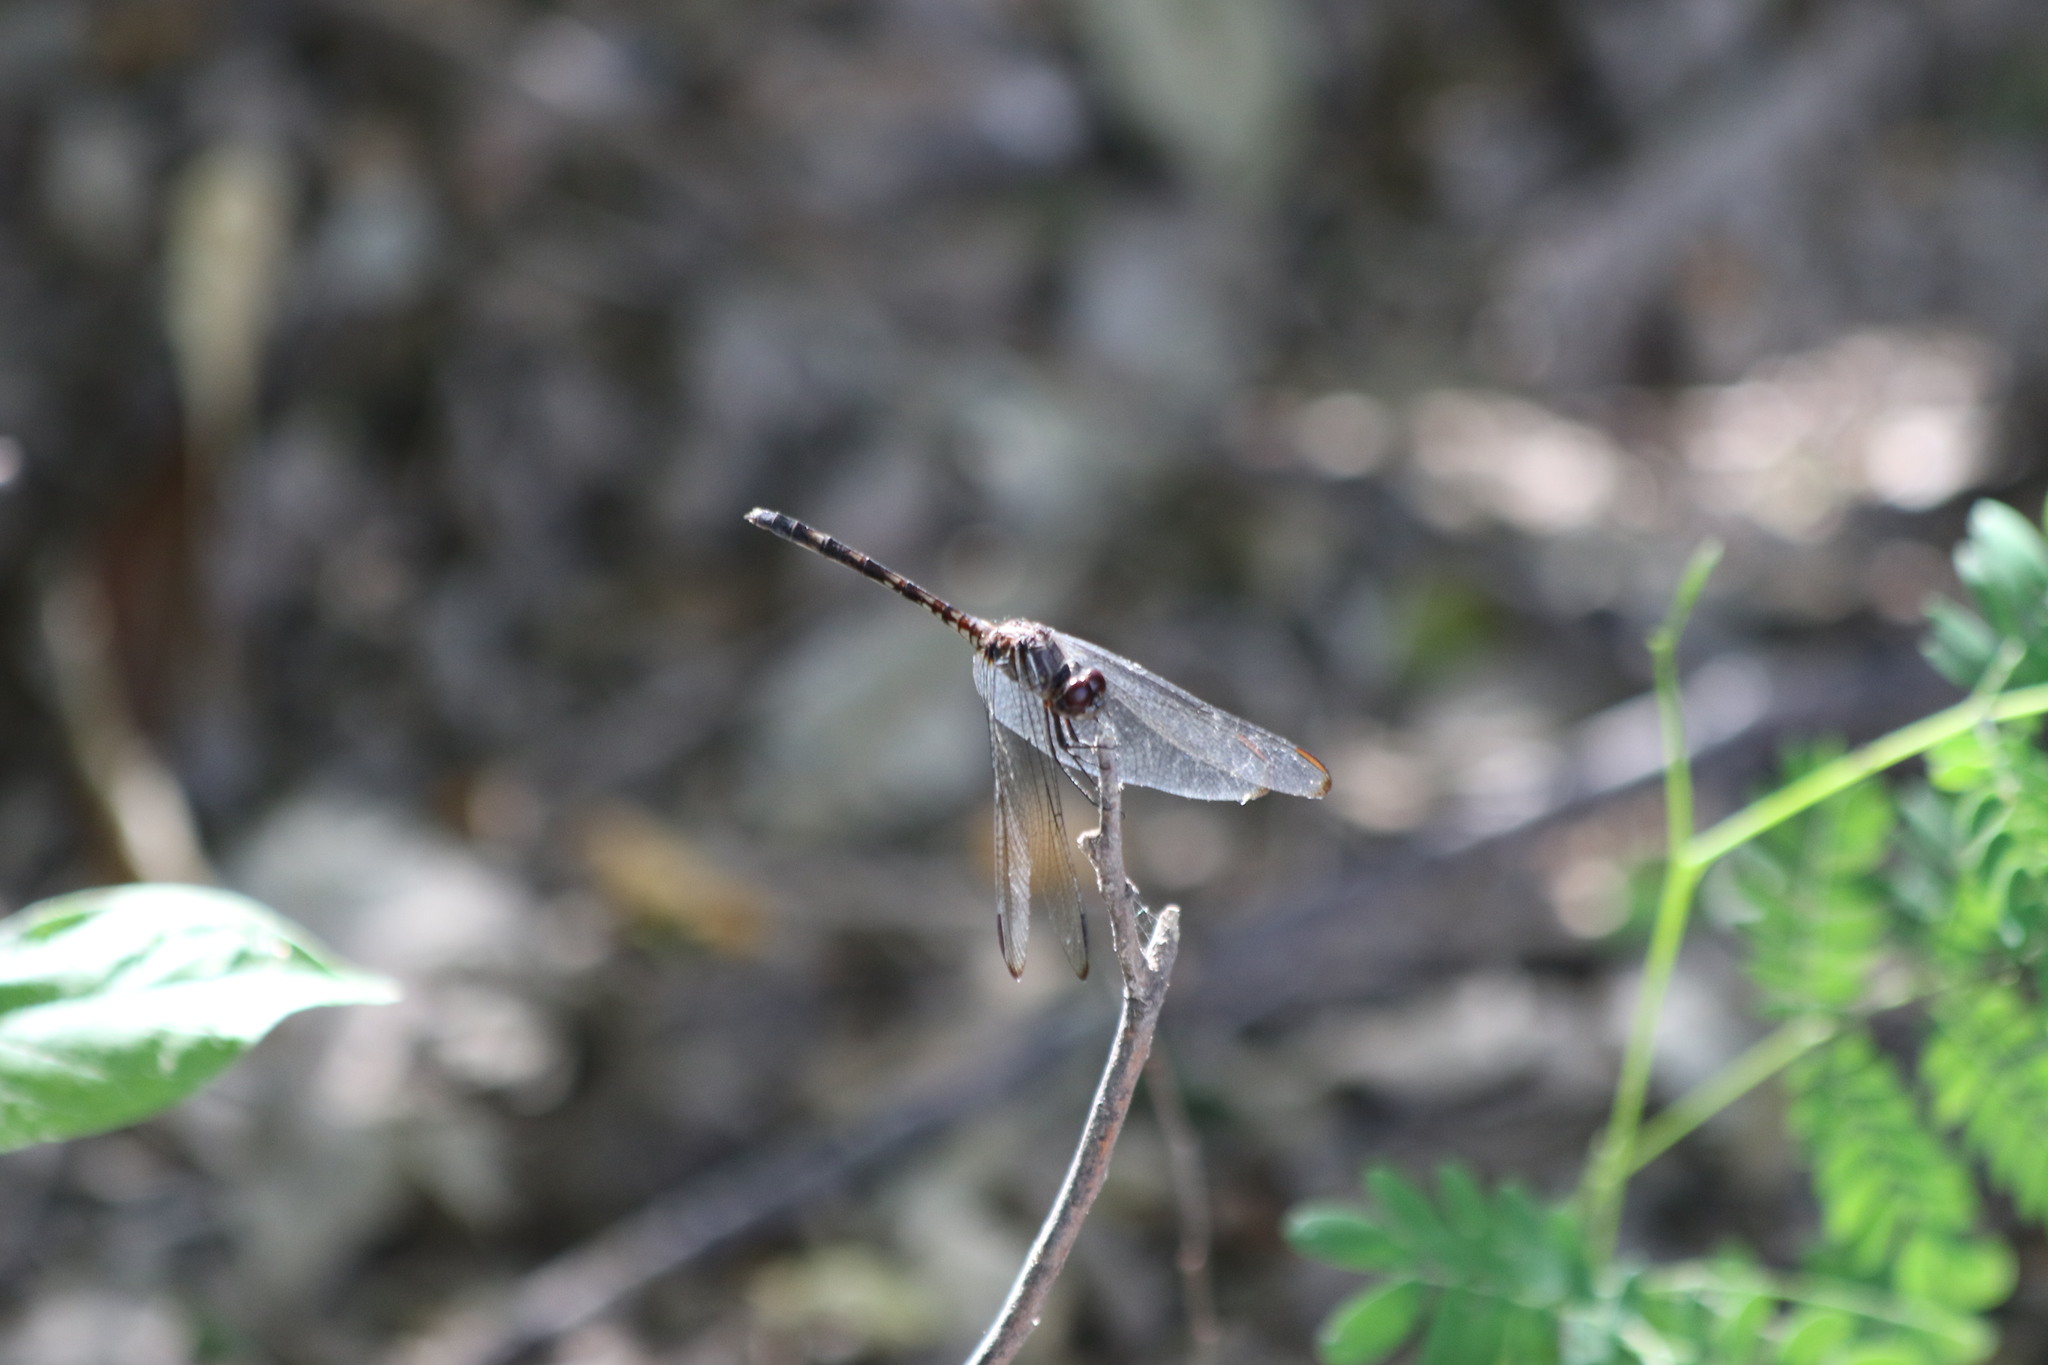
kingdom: Animalia
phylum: Arthropoda
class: Insecta
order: Odonata
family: Libellulidae
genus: Dythemis
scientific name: Dythemis nigrescens
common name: Black setwing
